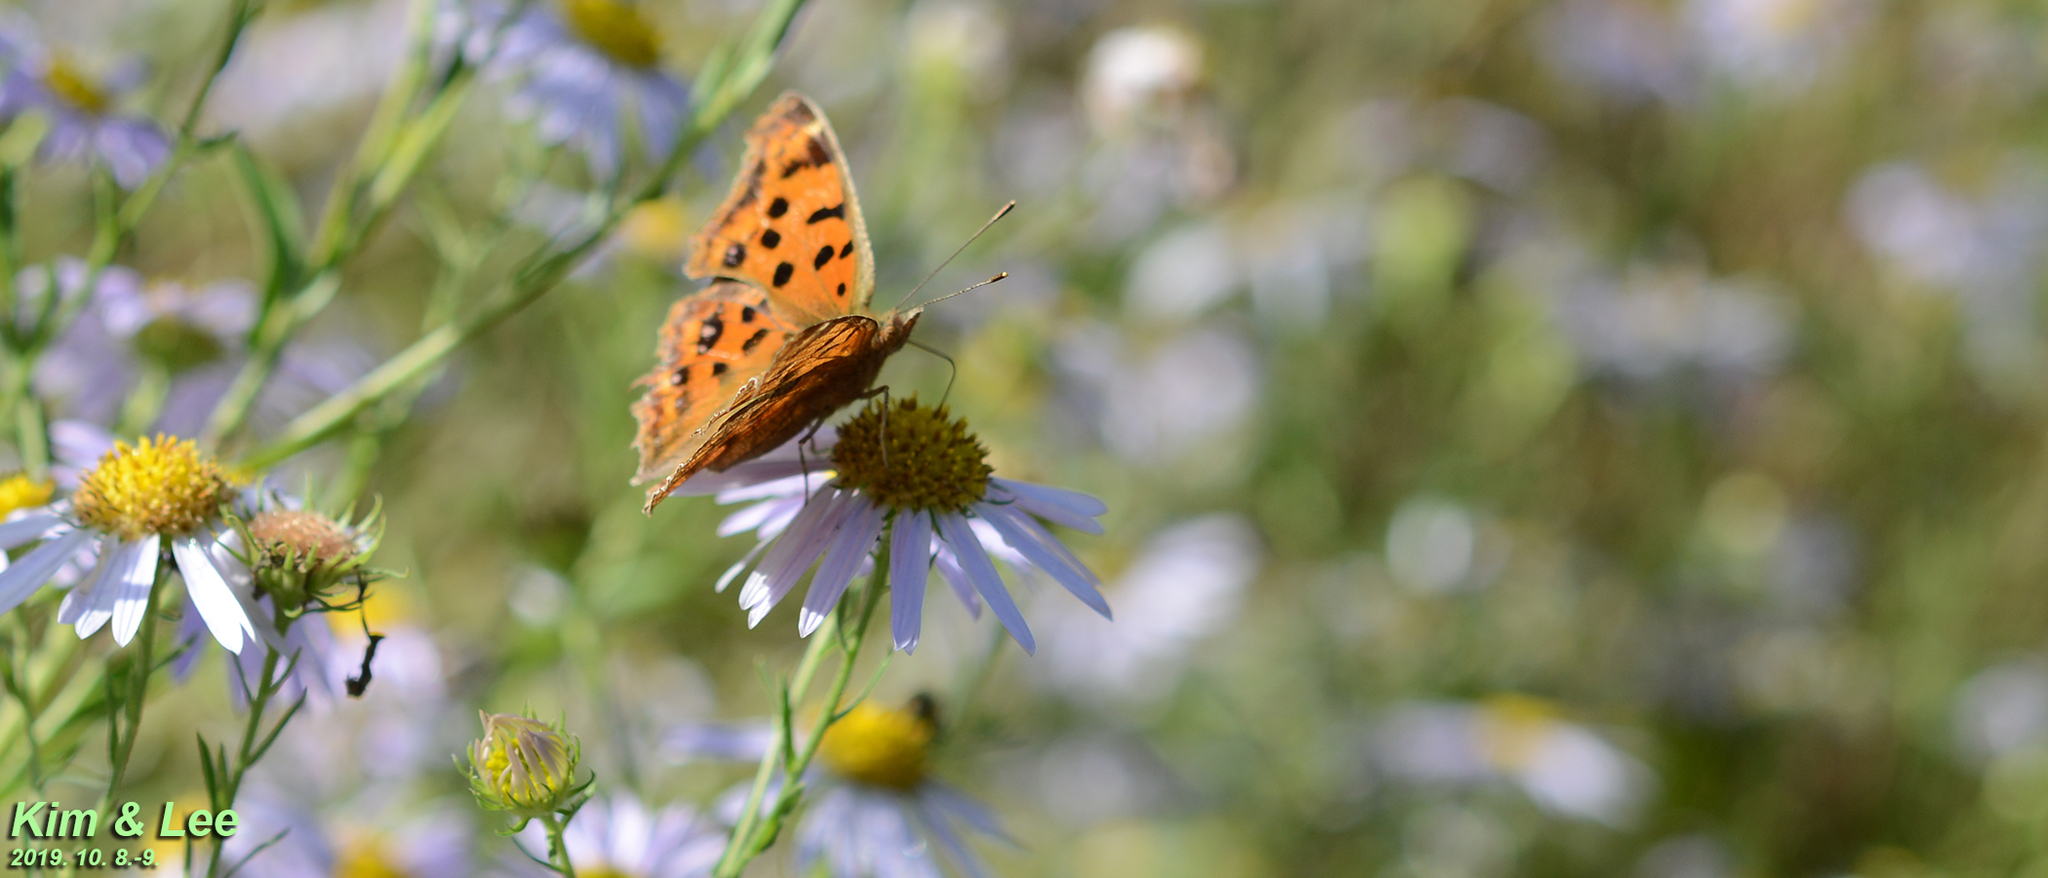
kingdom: Animalia
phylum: Arthropoda
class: Insecta
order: Lepidoptera
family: Nymphalidae
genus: Polygonia
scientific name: Polygonia c-aureum
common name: Asian comma
